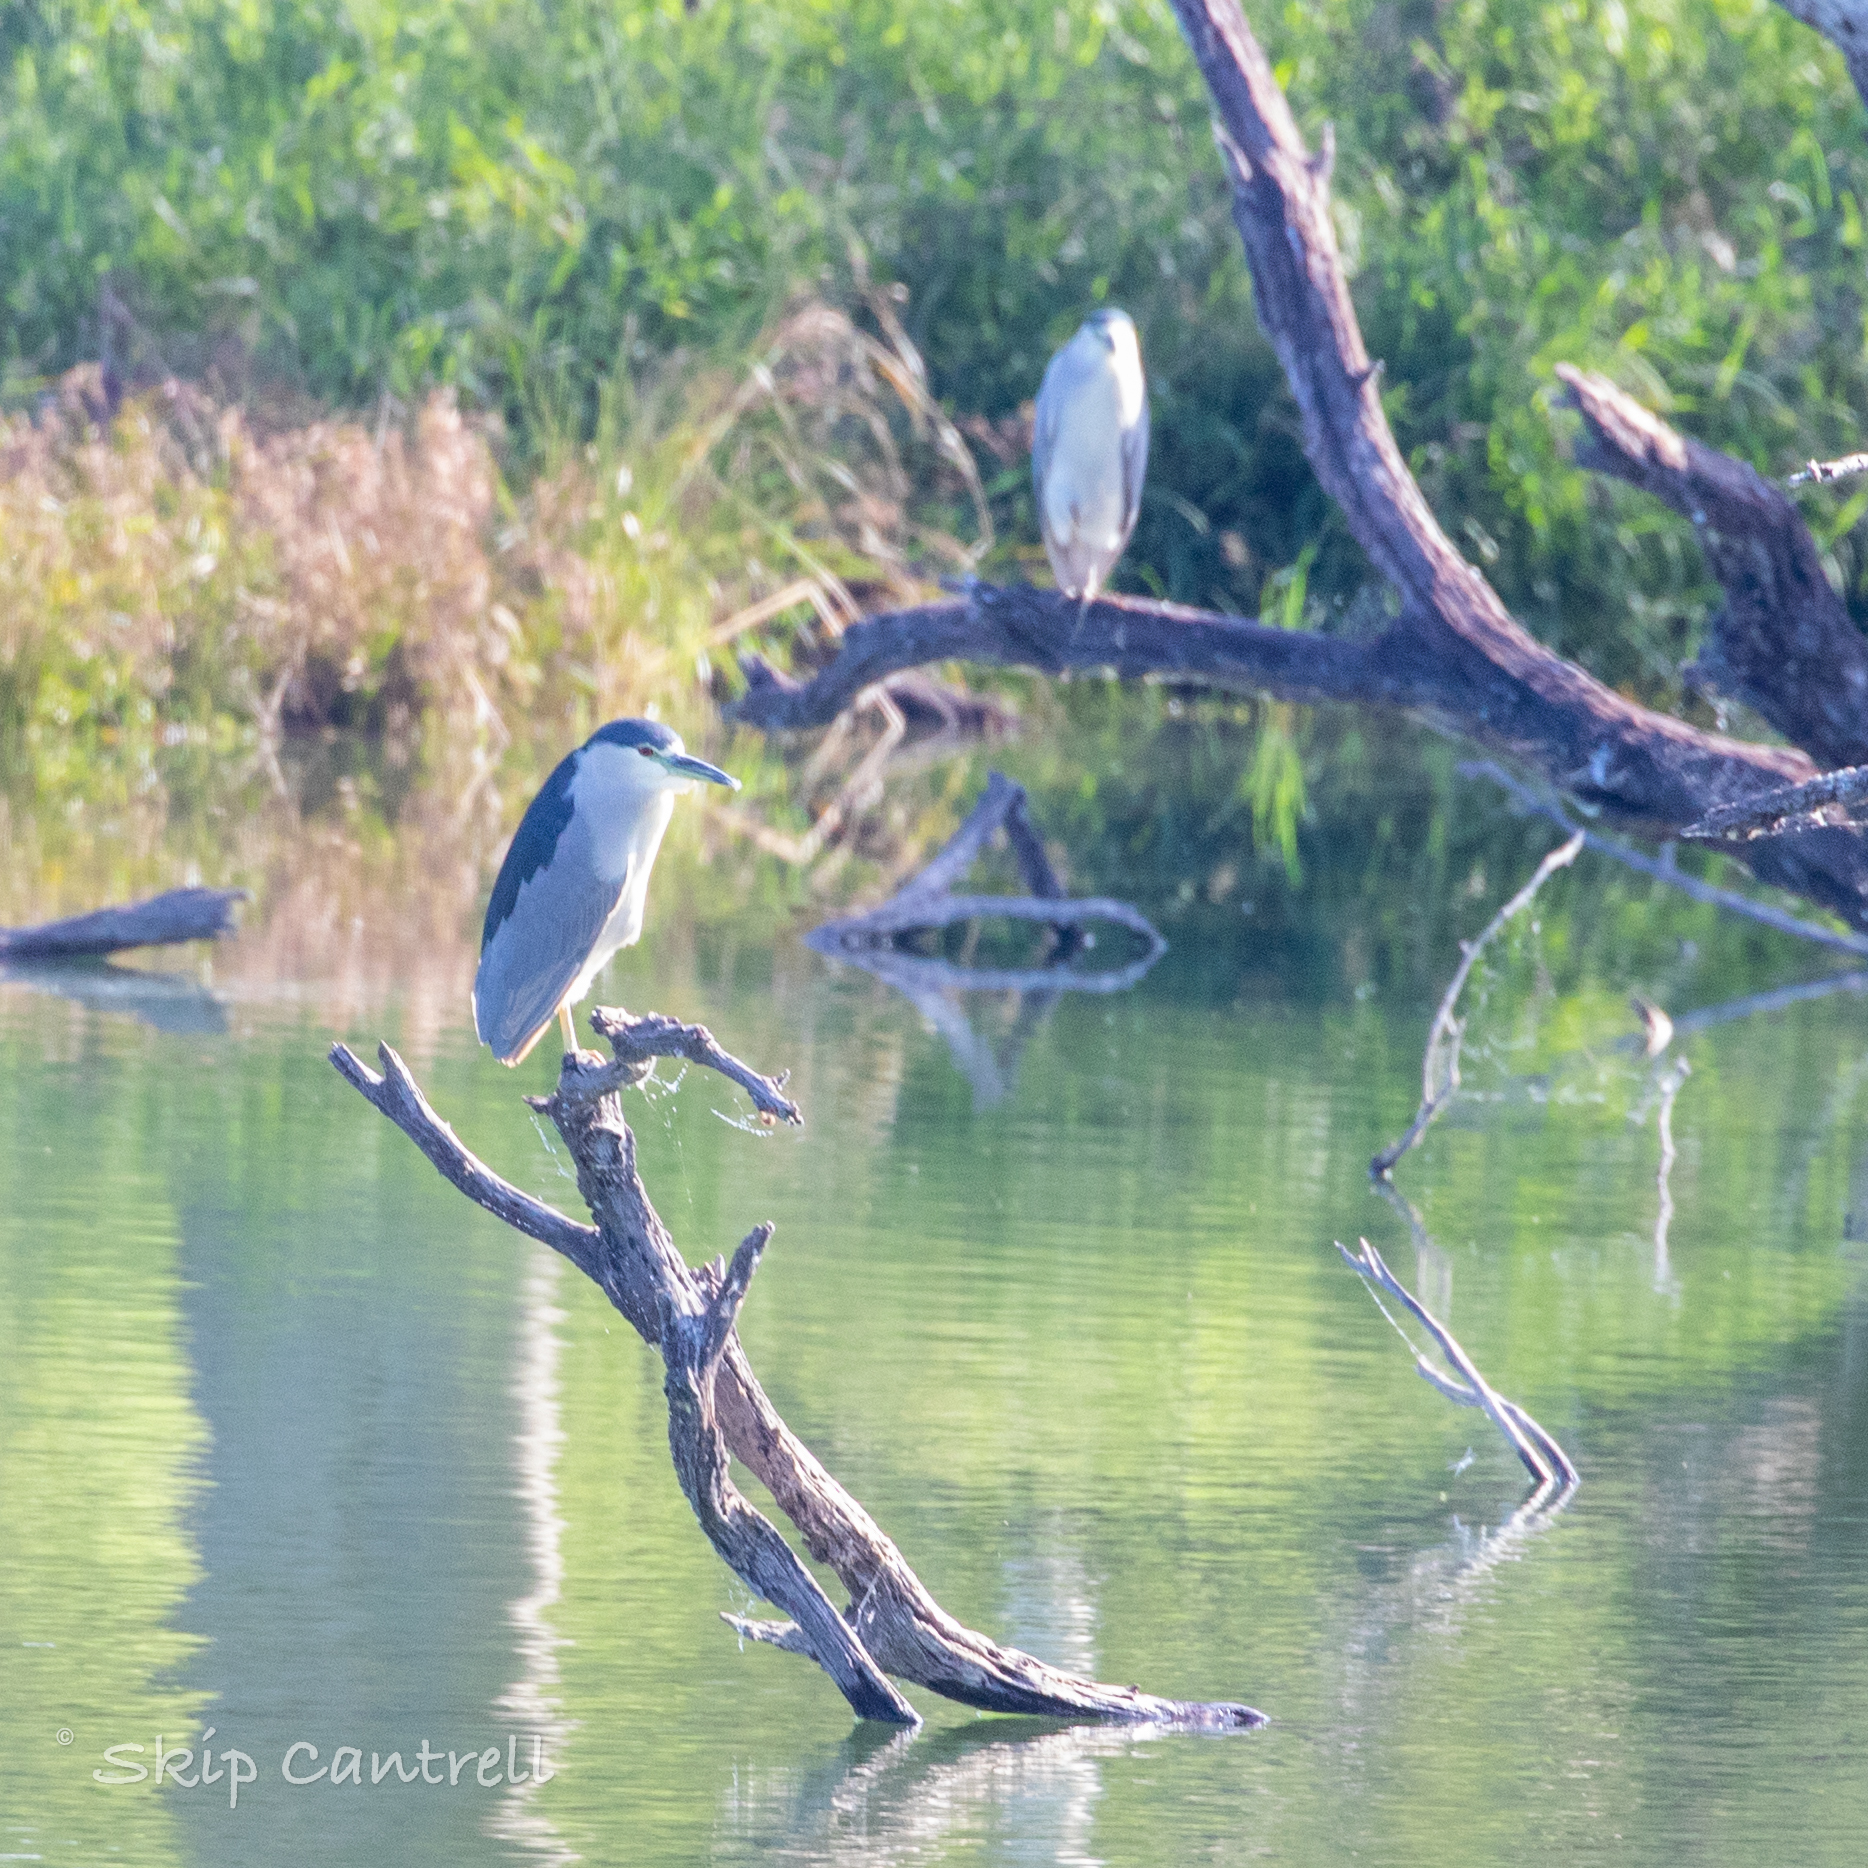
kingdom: Animalia
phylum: Chordata
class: Aves
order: Pelecaniformes
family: Ardeidae
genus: Nycticorax
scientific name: Nycticorax nycticorax
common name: Black-crowned night heron
